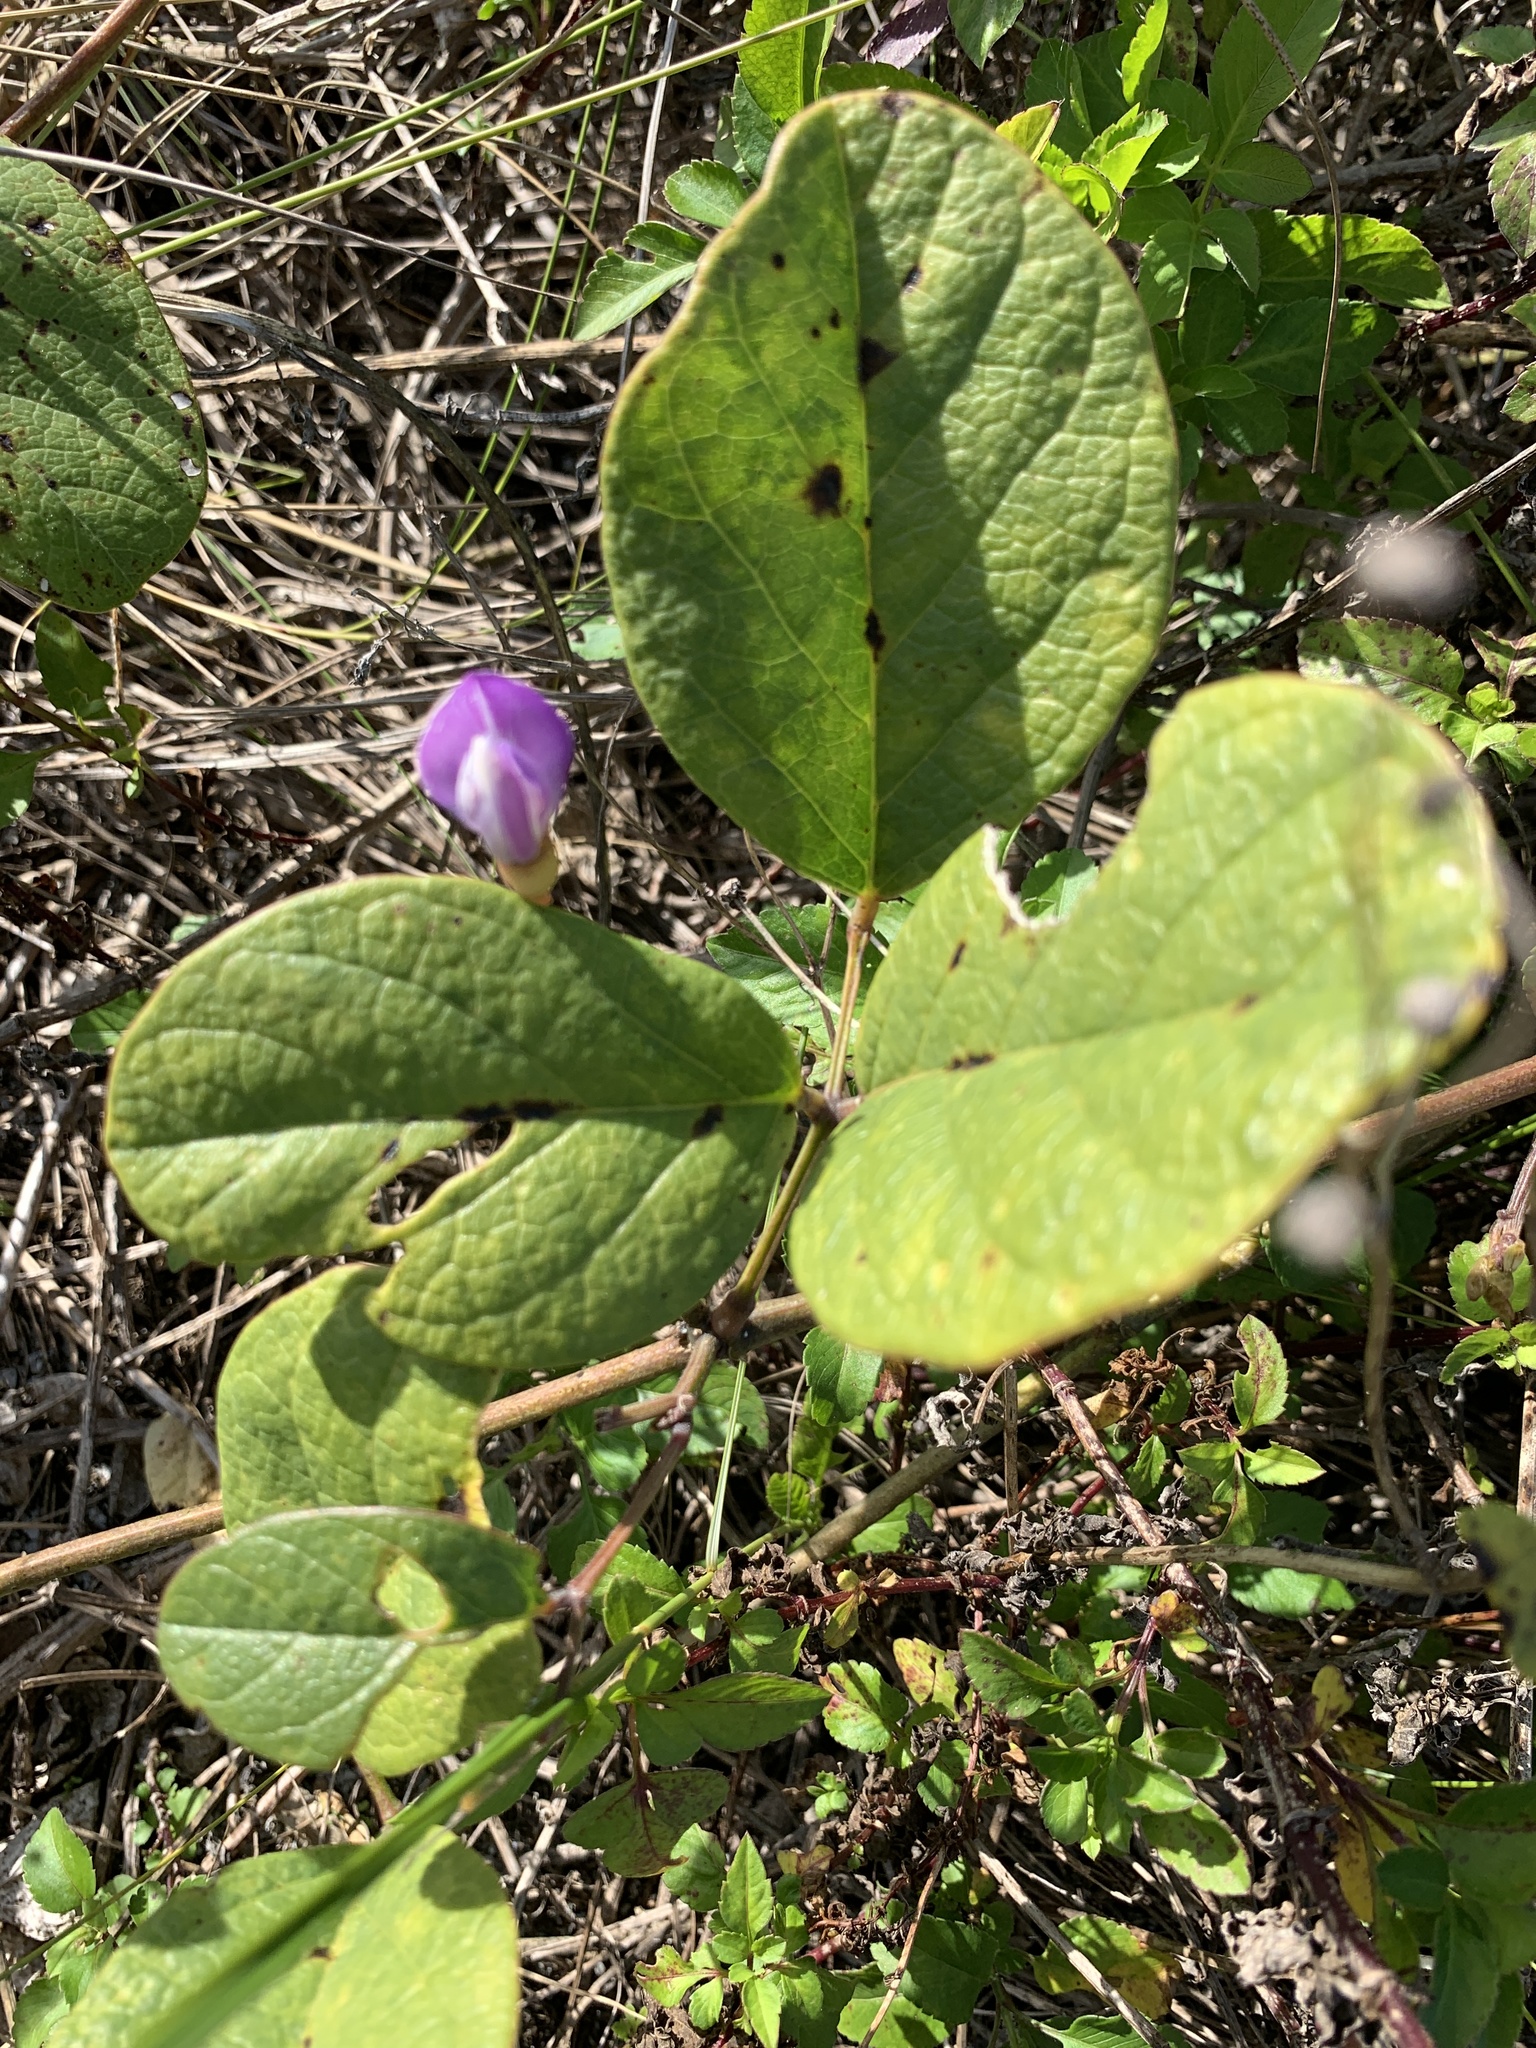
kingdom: Plantae
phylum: Tracheophyta
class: Magnoliopsida
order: Fabales
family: Fabaceae
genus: Canavalia
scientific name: Canavalia rosea
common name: Beach-bean
